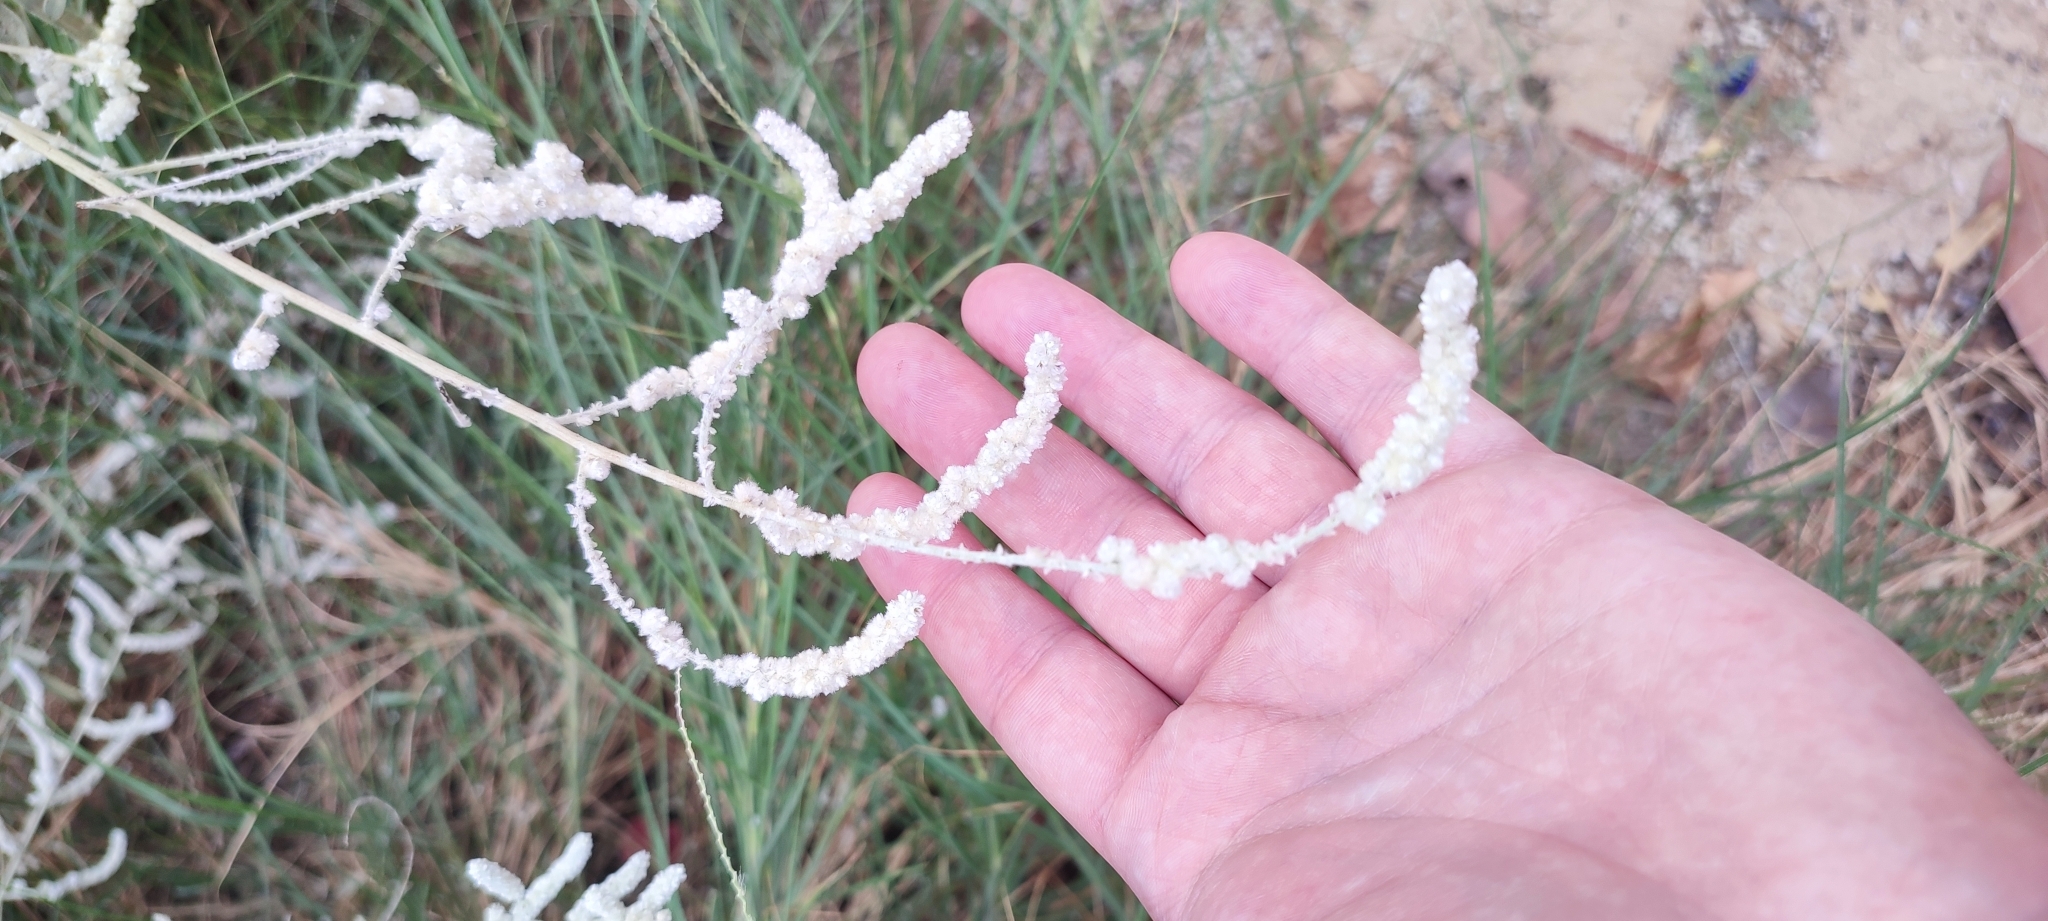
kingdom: Plantae
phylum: Tracheophyta
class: Magnoliopsida
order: Caryophyllales
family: Amaranthaceae
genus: Aerva
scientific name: Aerva javanica
